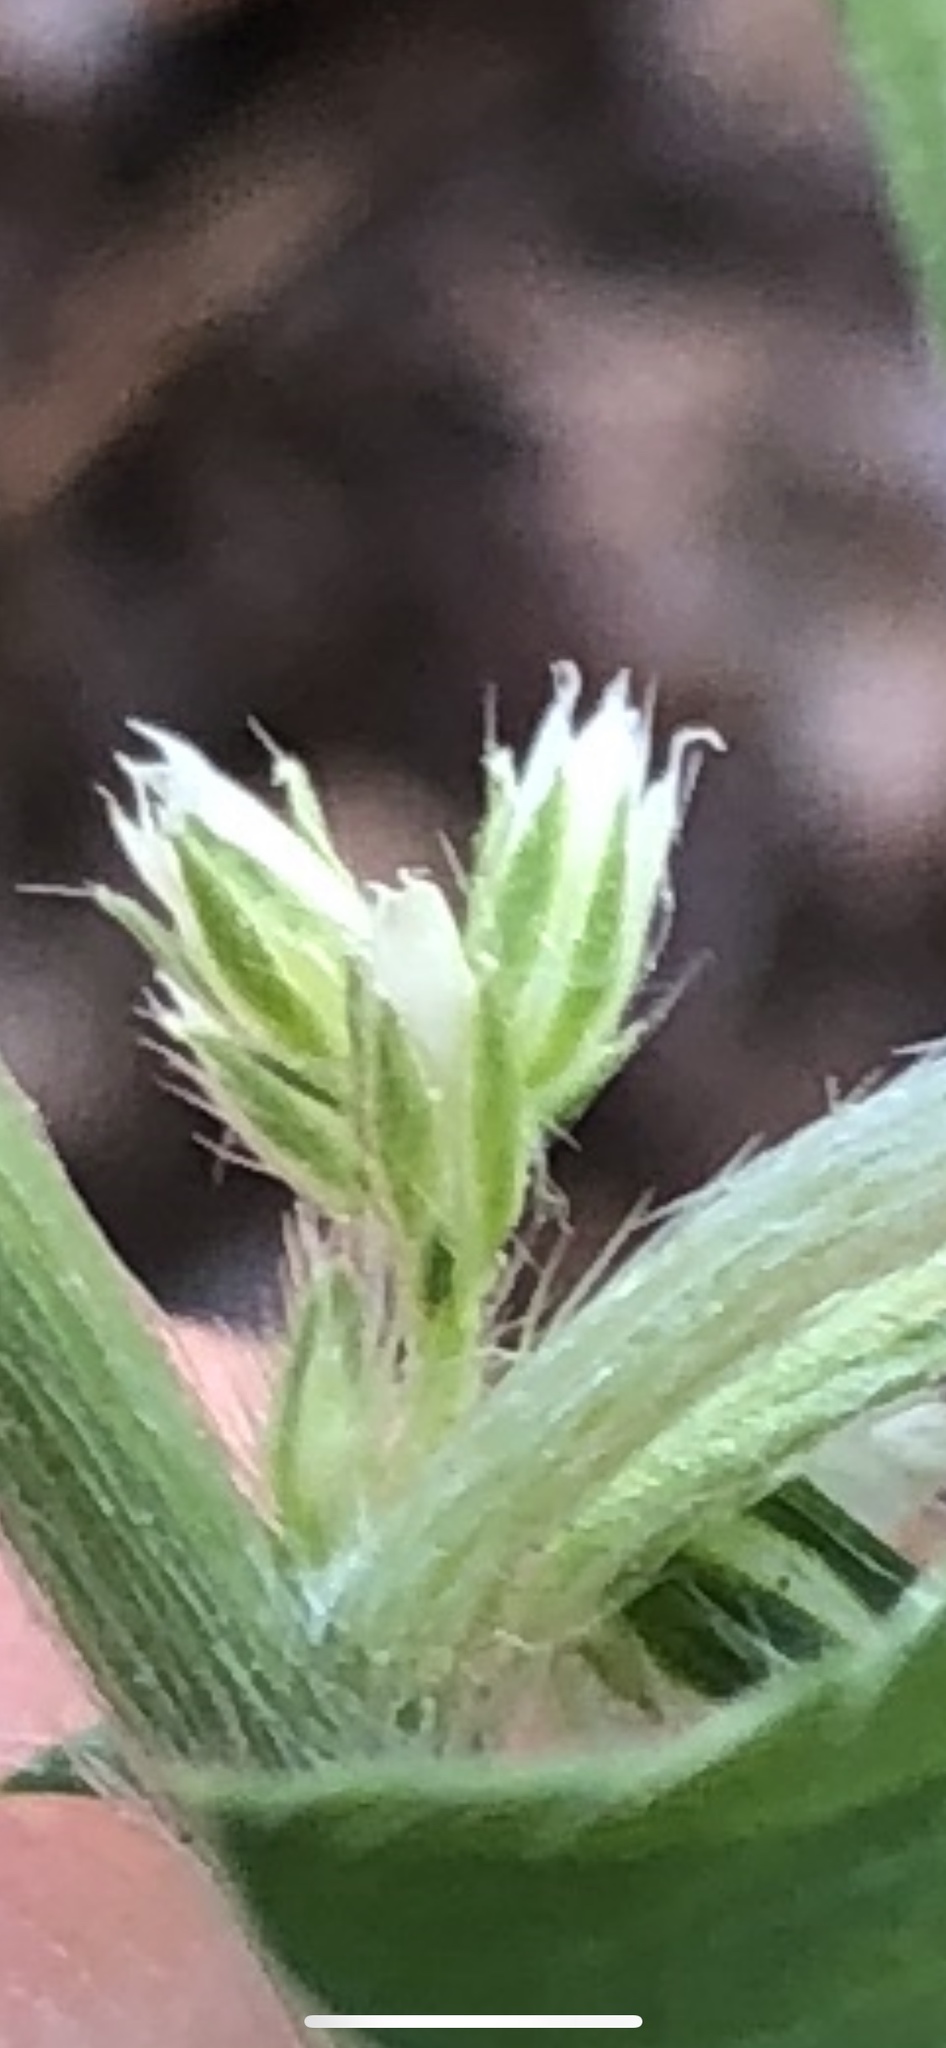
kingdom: Plantae
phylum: Tracheophyta
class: Magnoliopsida
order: Malpighiales
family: Euphorbiaceae
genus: Ditaxis
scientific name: Ditaxis serrata
